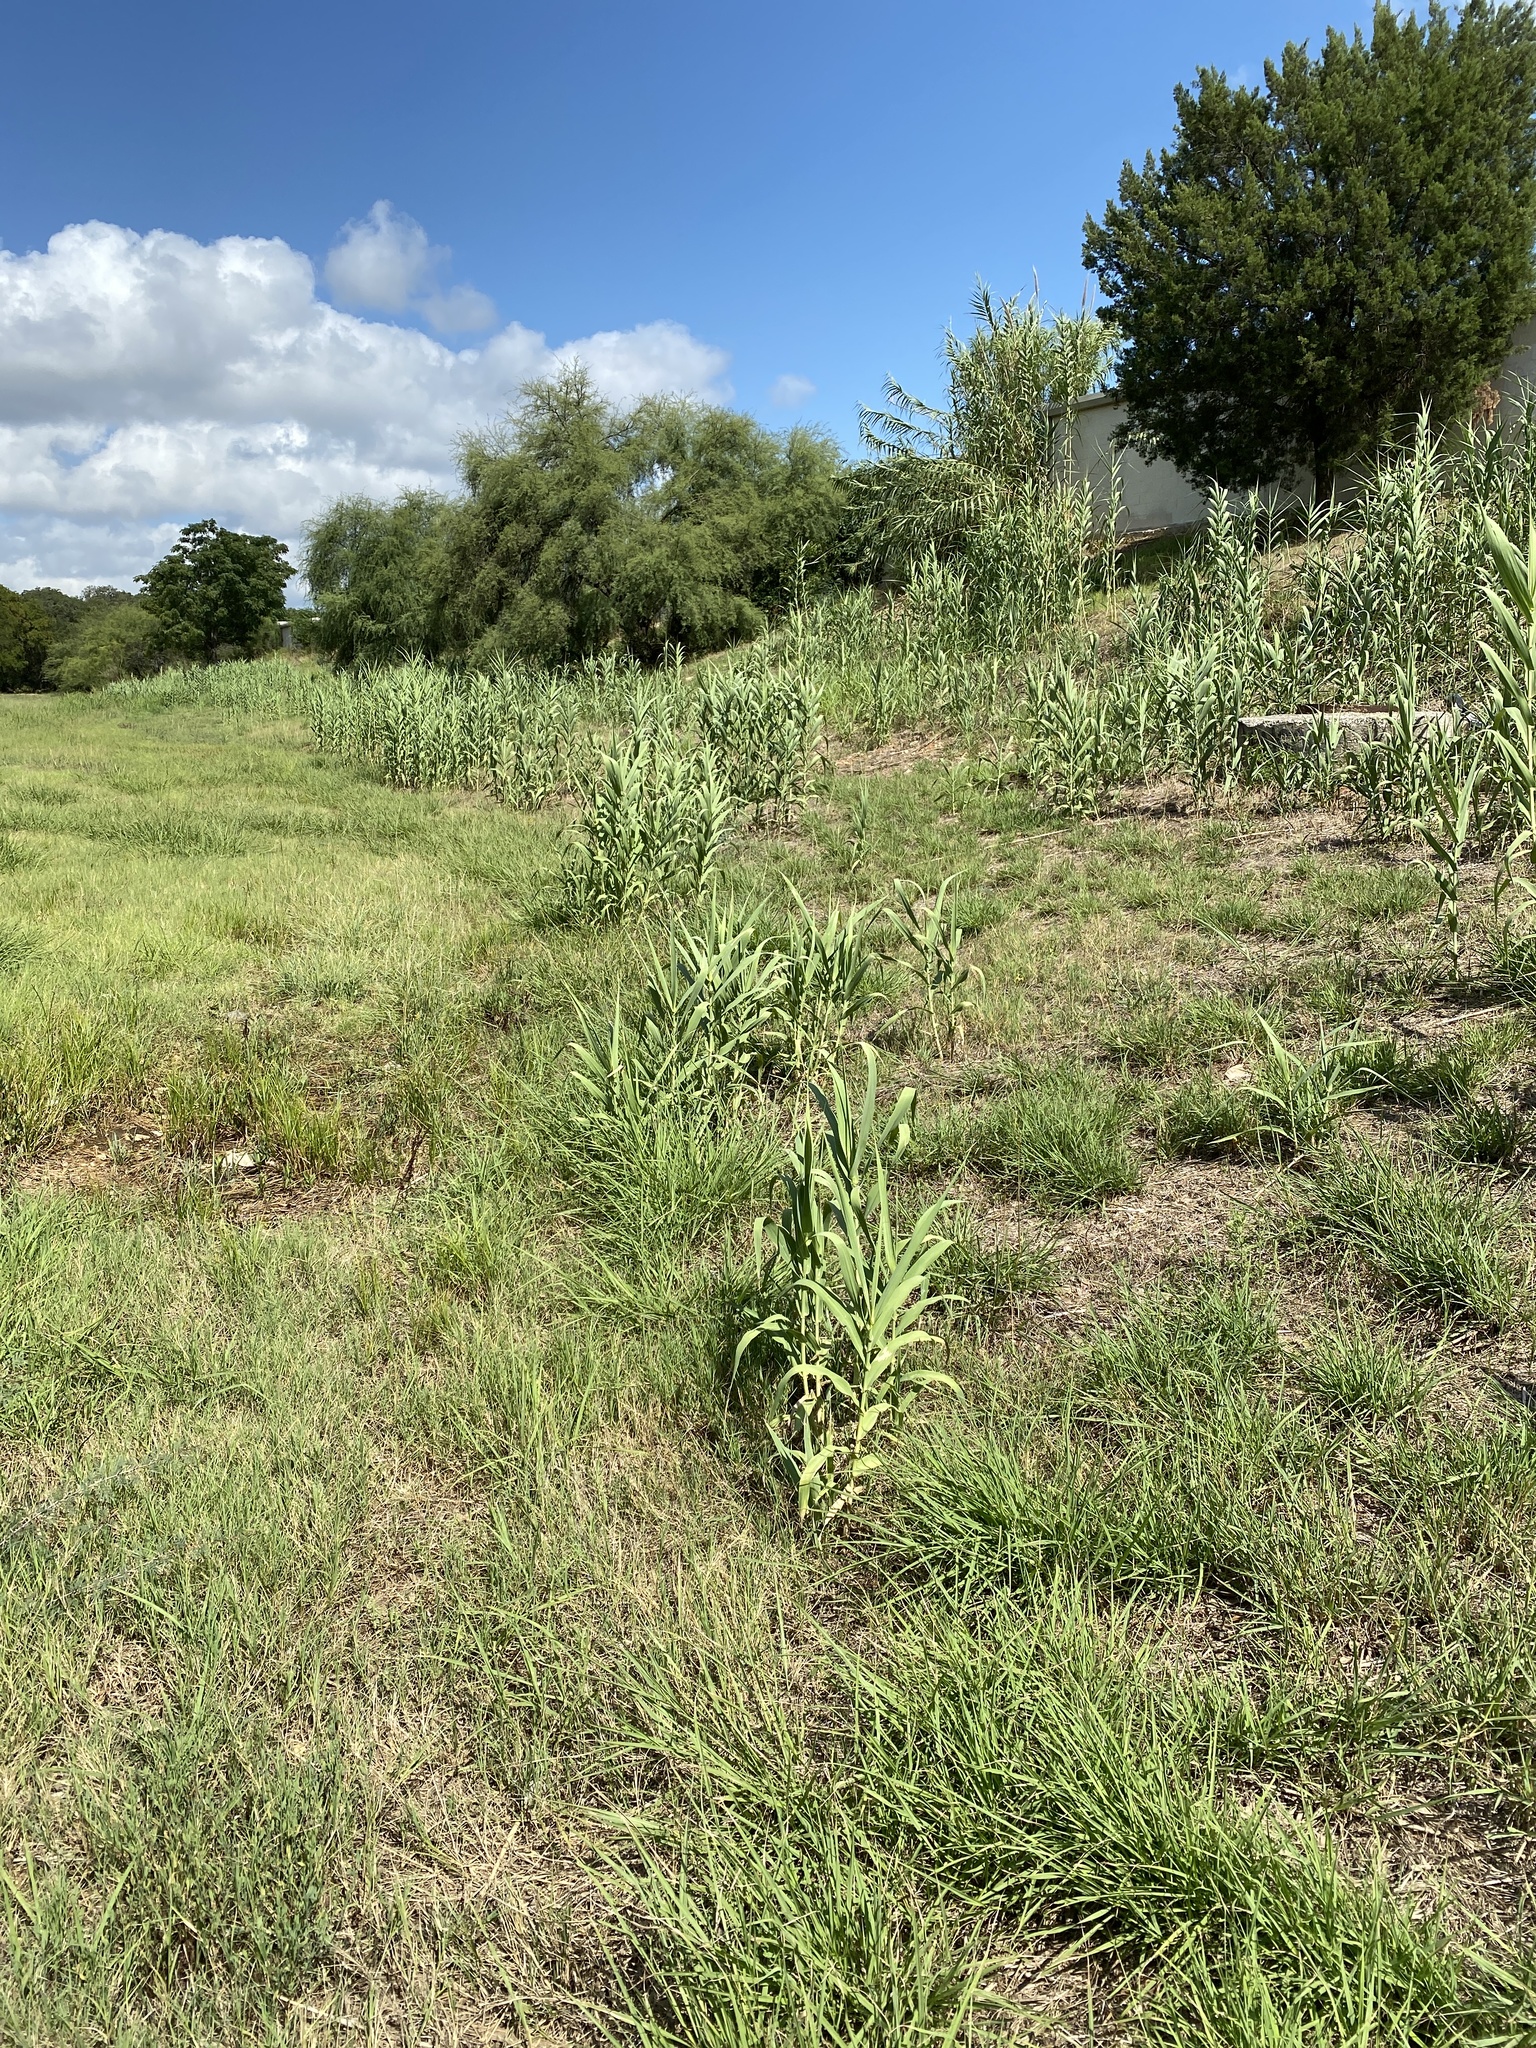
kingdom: Plantae
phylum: Tracheophyta
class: Liliopsida
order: Poales
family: Poaceae
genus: Arundo
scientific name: Arundo donax
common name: Giant reed
